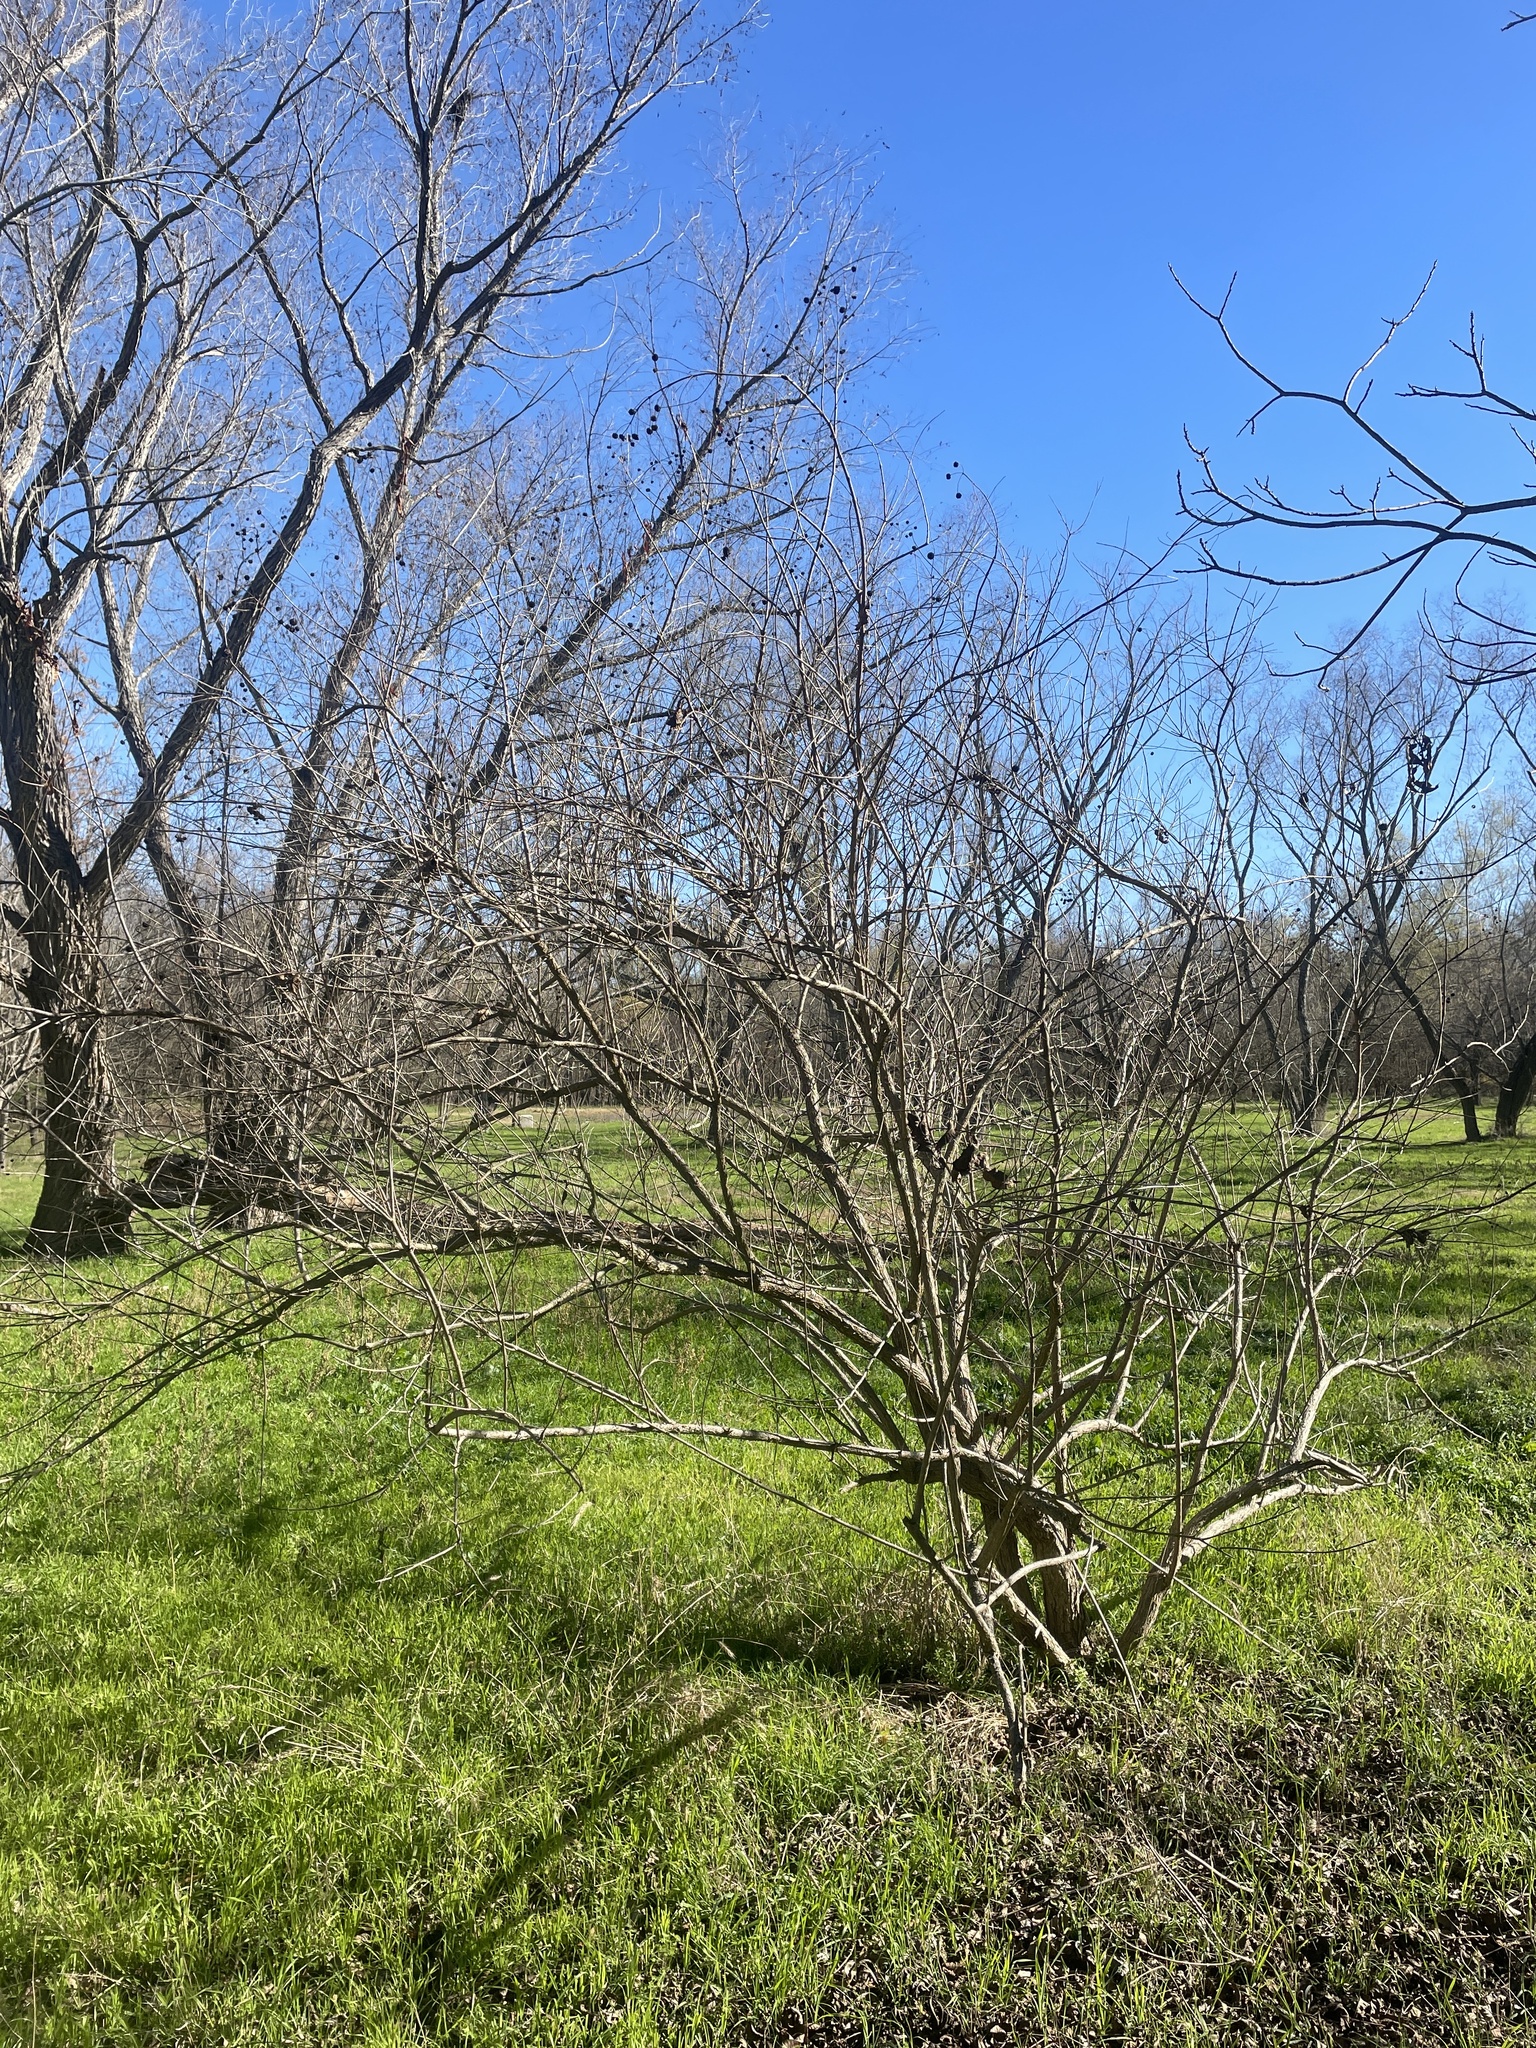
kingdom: Plantae
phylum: Tracheophyta
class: Magnoliopsida
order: Gentianales
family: Rubiaceae
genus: Cephalanthus
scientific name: Cephalanthus occidentalis
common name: Button-willow
